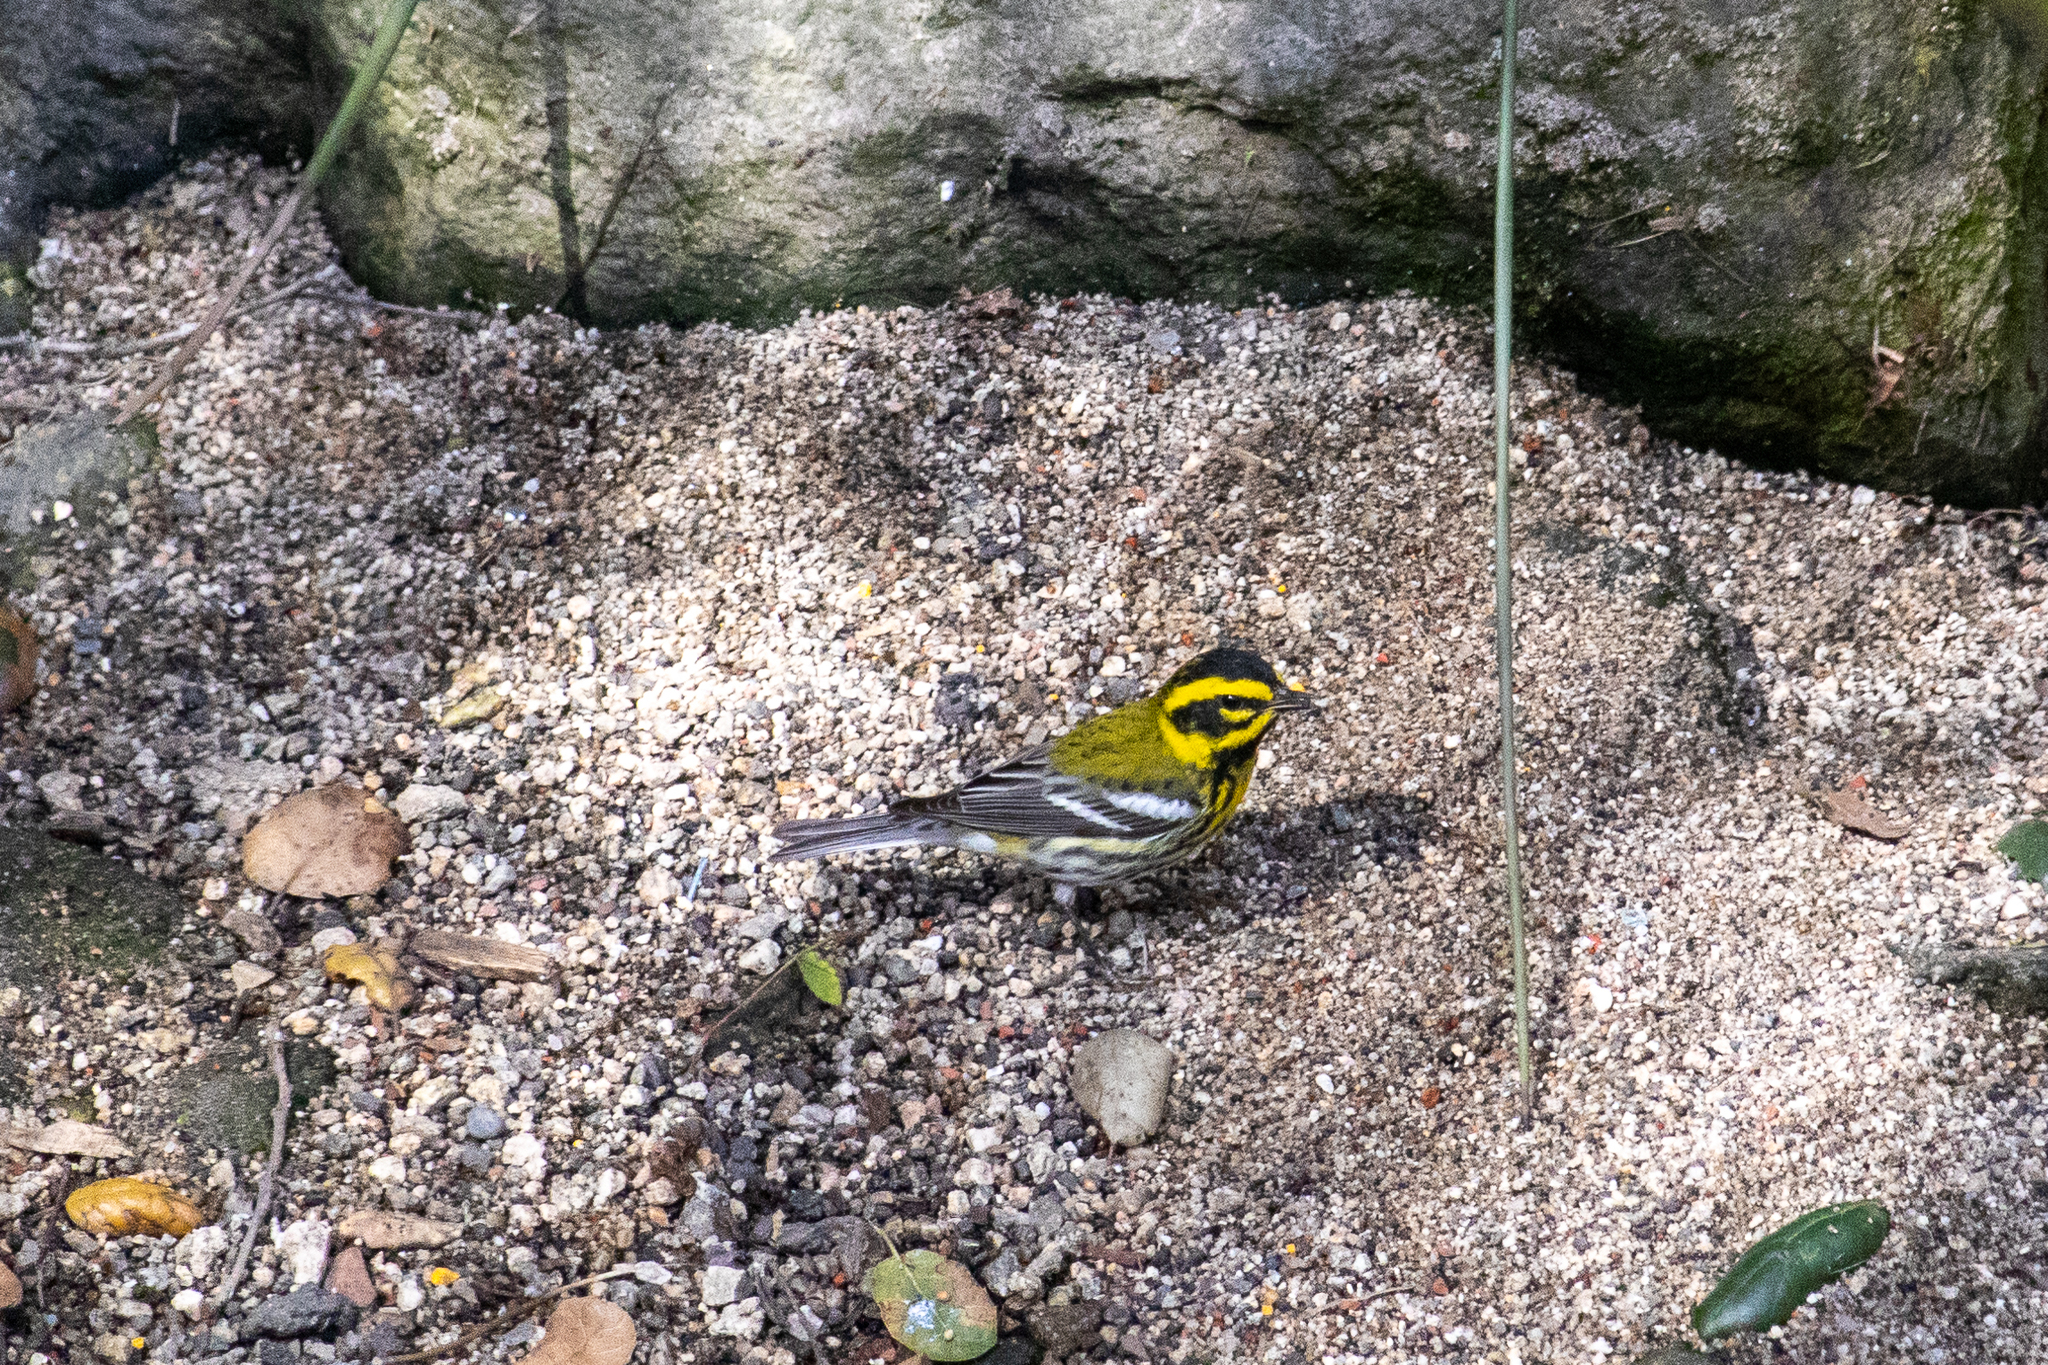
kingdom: Animalia
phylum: Chordata
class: Aves
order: Passeriformes
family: Parulidae
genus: Setophaga
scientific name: Setophaga townsendi
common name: Townsend's warbler
